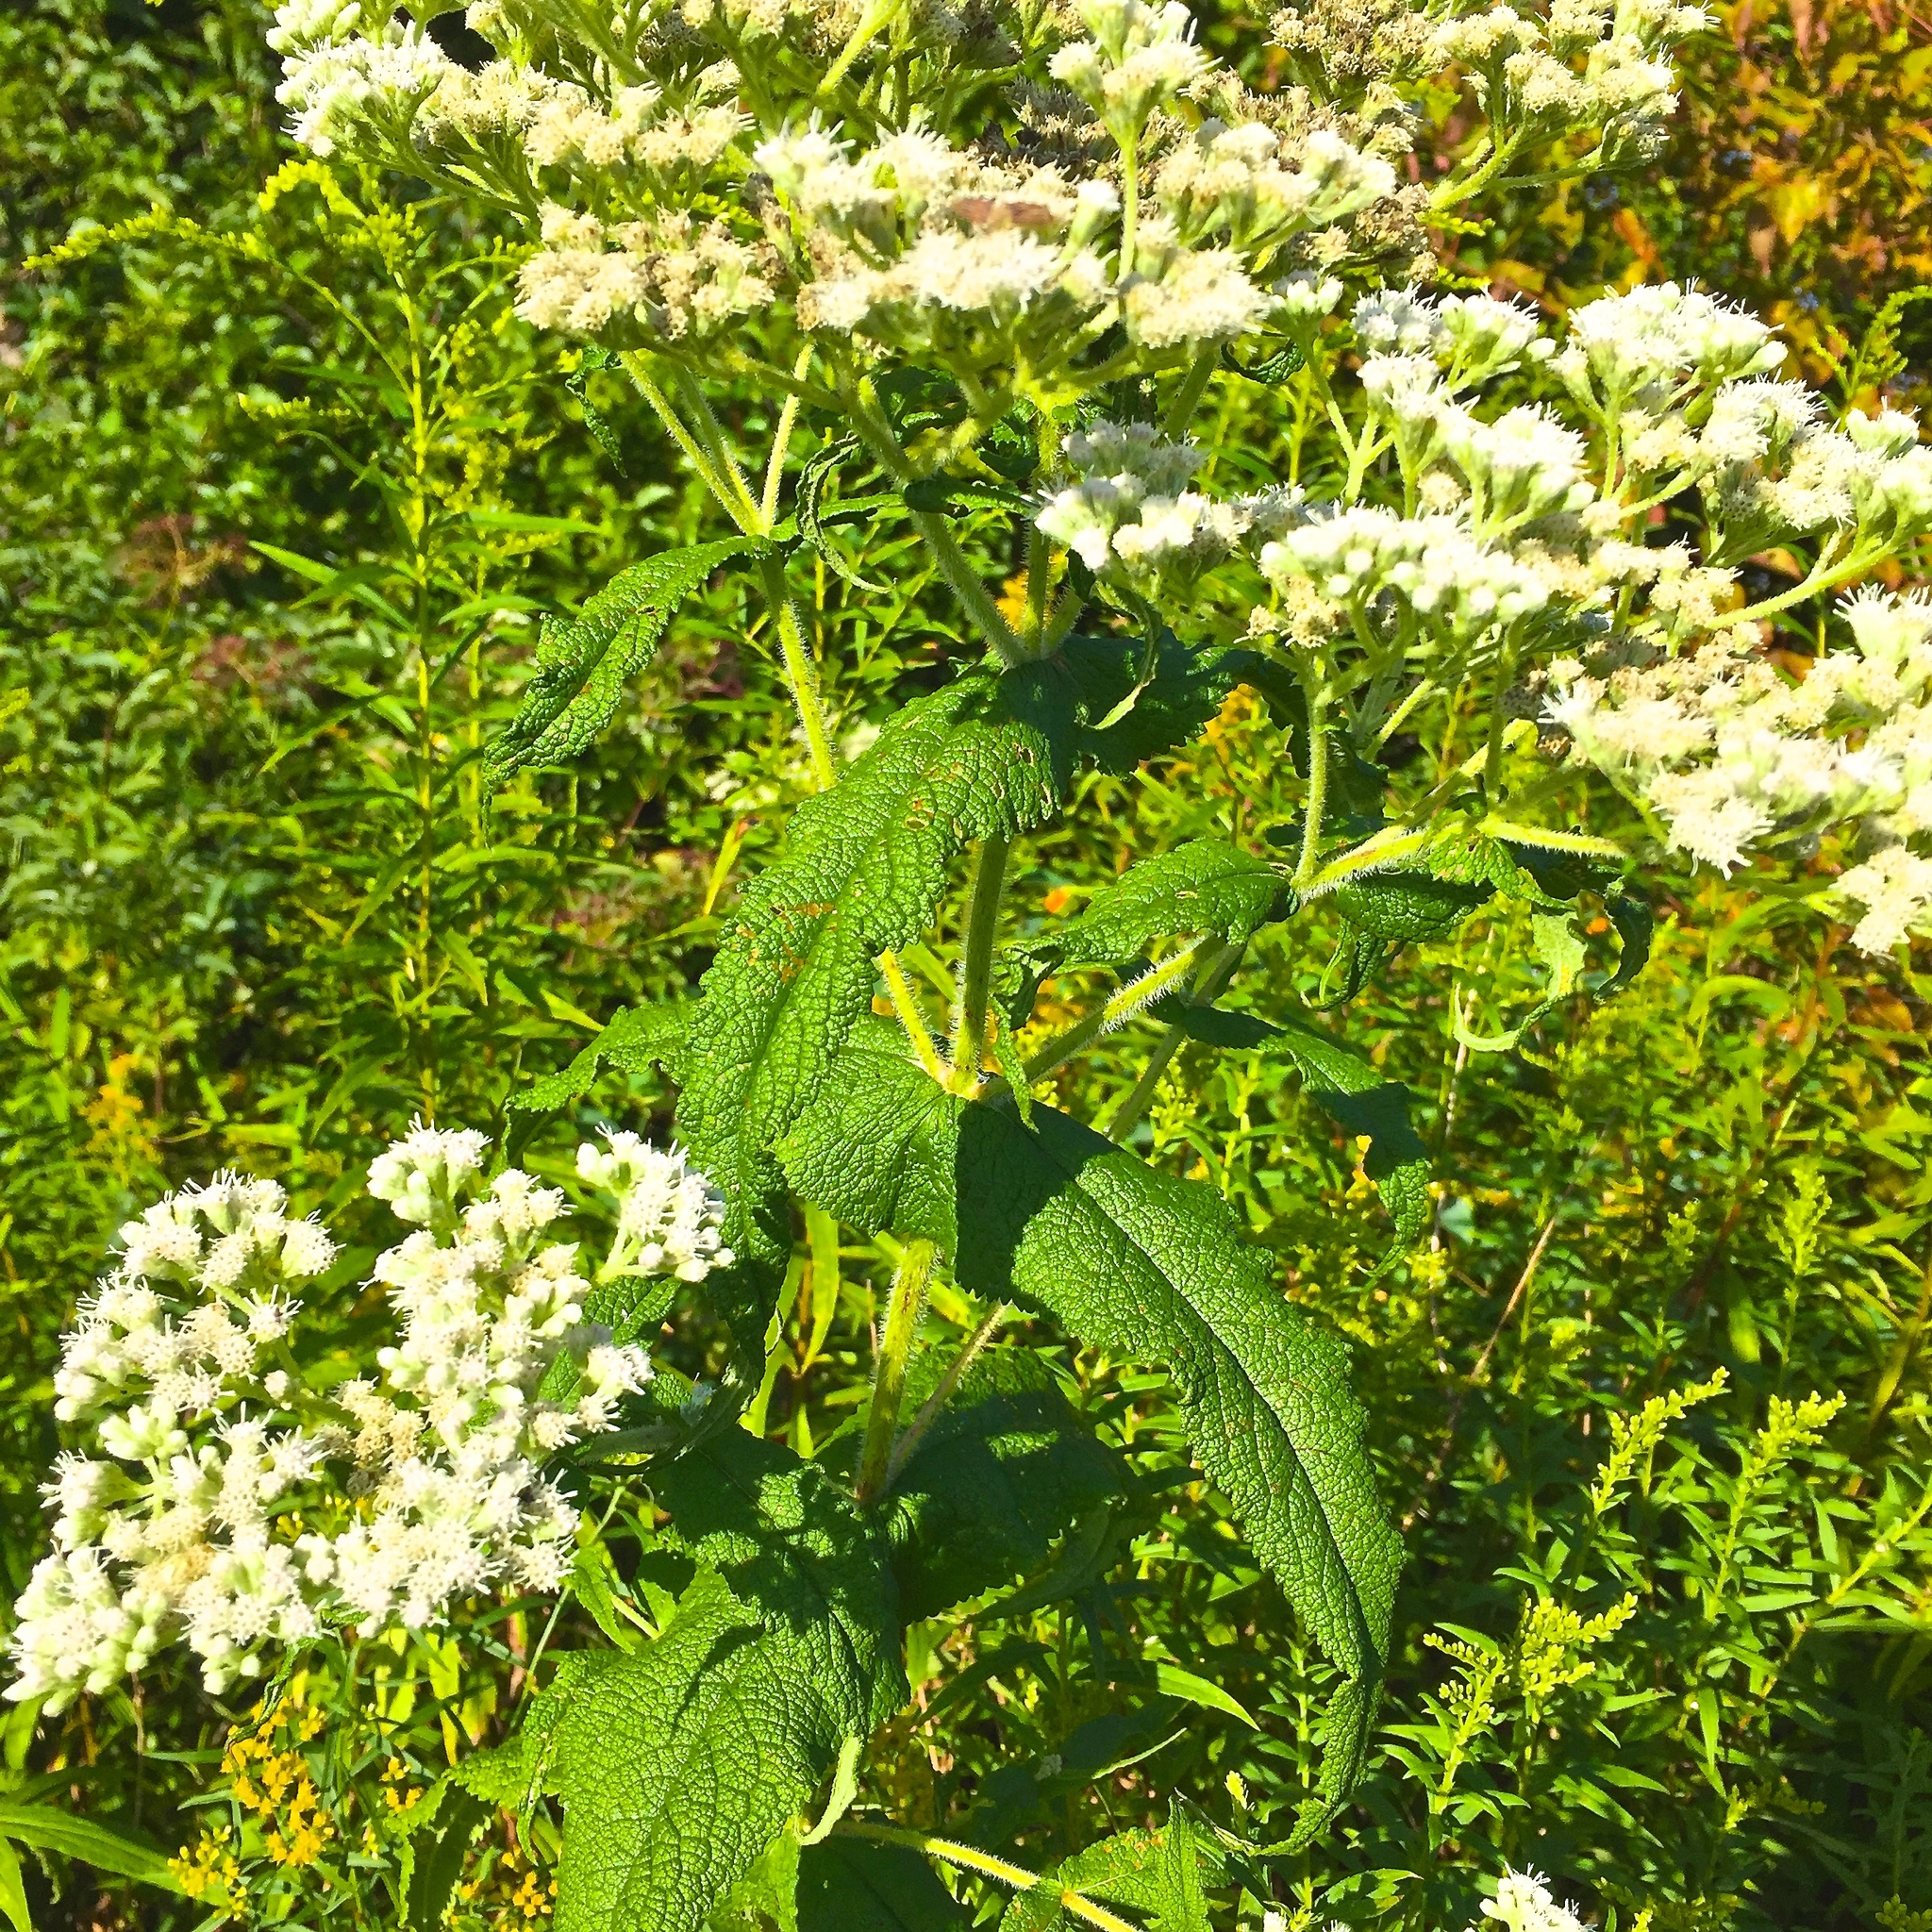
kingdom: Plantae
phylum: Tracheophyta
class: Magnoliopsida
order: Asterales
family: Asteraceae
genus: Eupatorium
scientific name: Eupatorium perfoliatum
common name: Boneset
